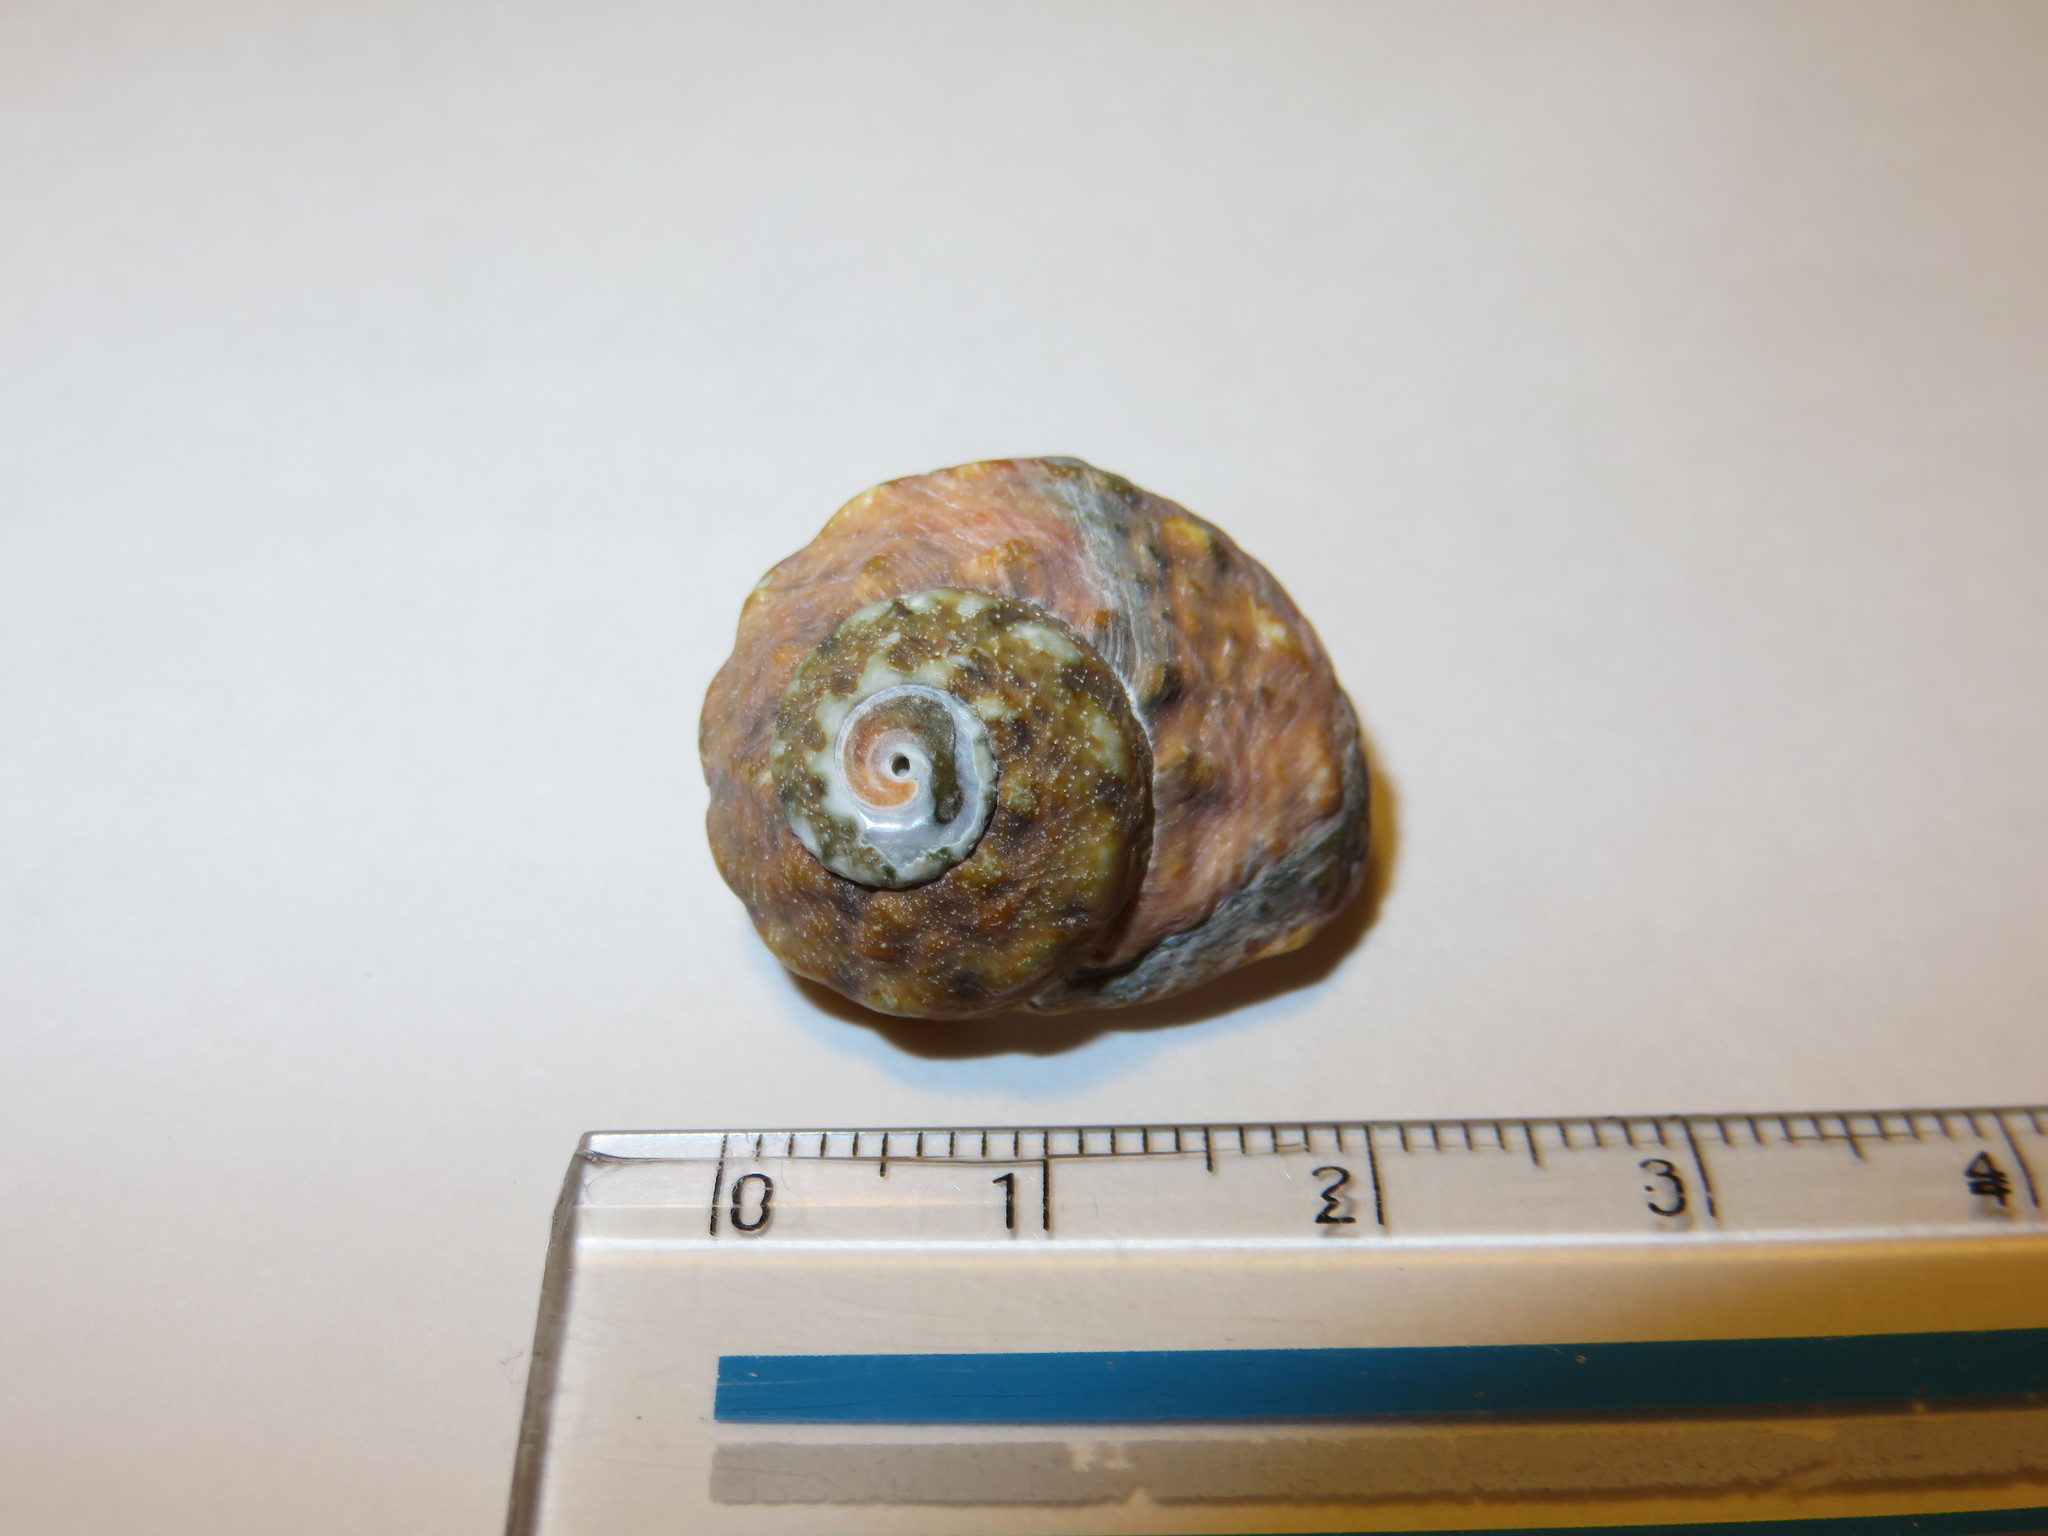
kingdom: Animalia
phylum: Mollusca
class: Gastropoda
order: Trochida
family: Turbinidae
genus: Lunella
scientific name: Lunella correensis
